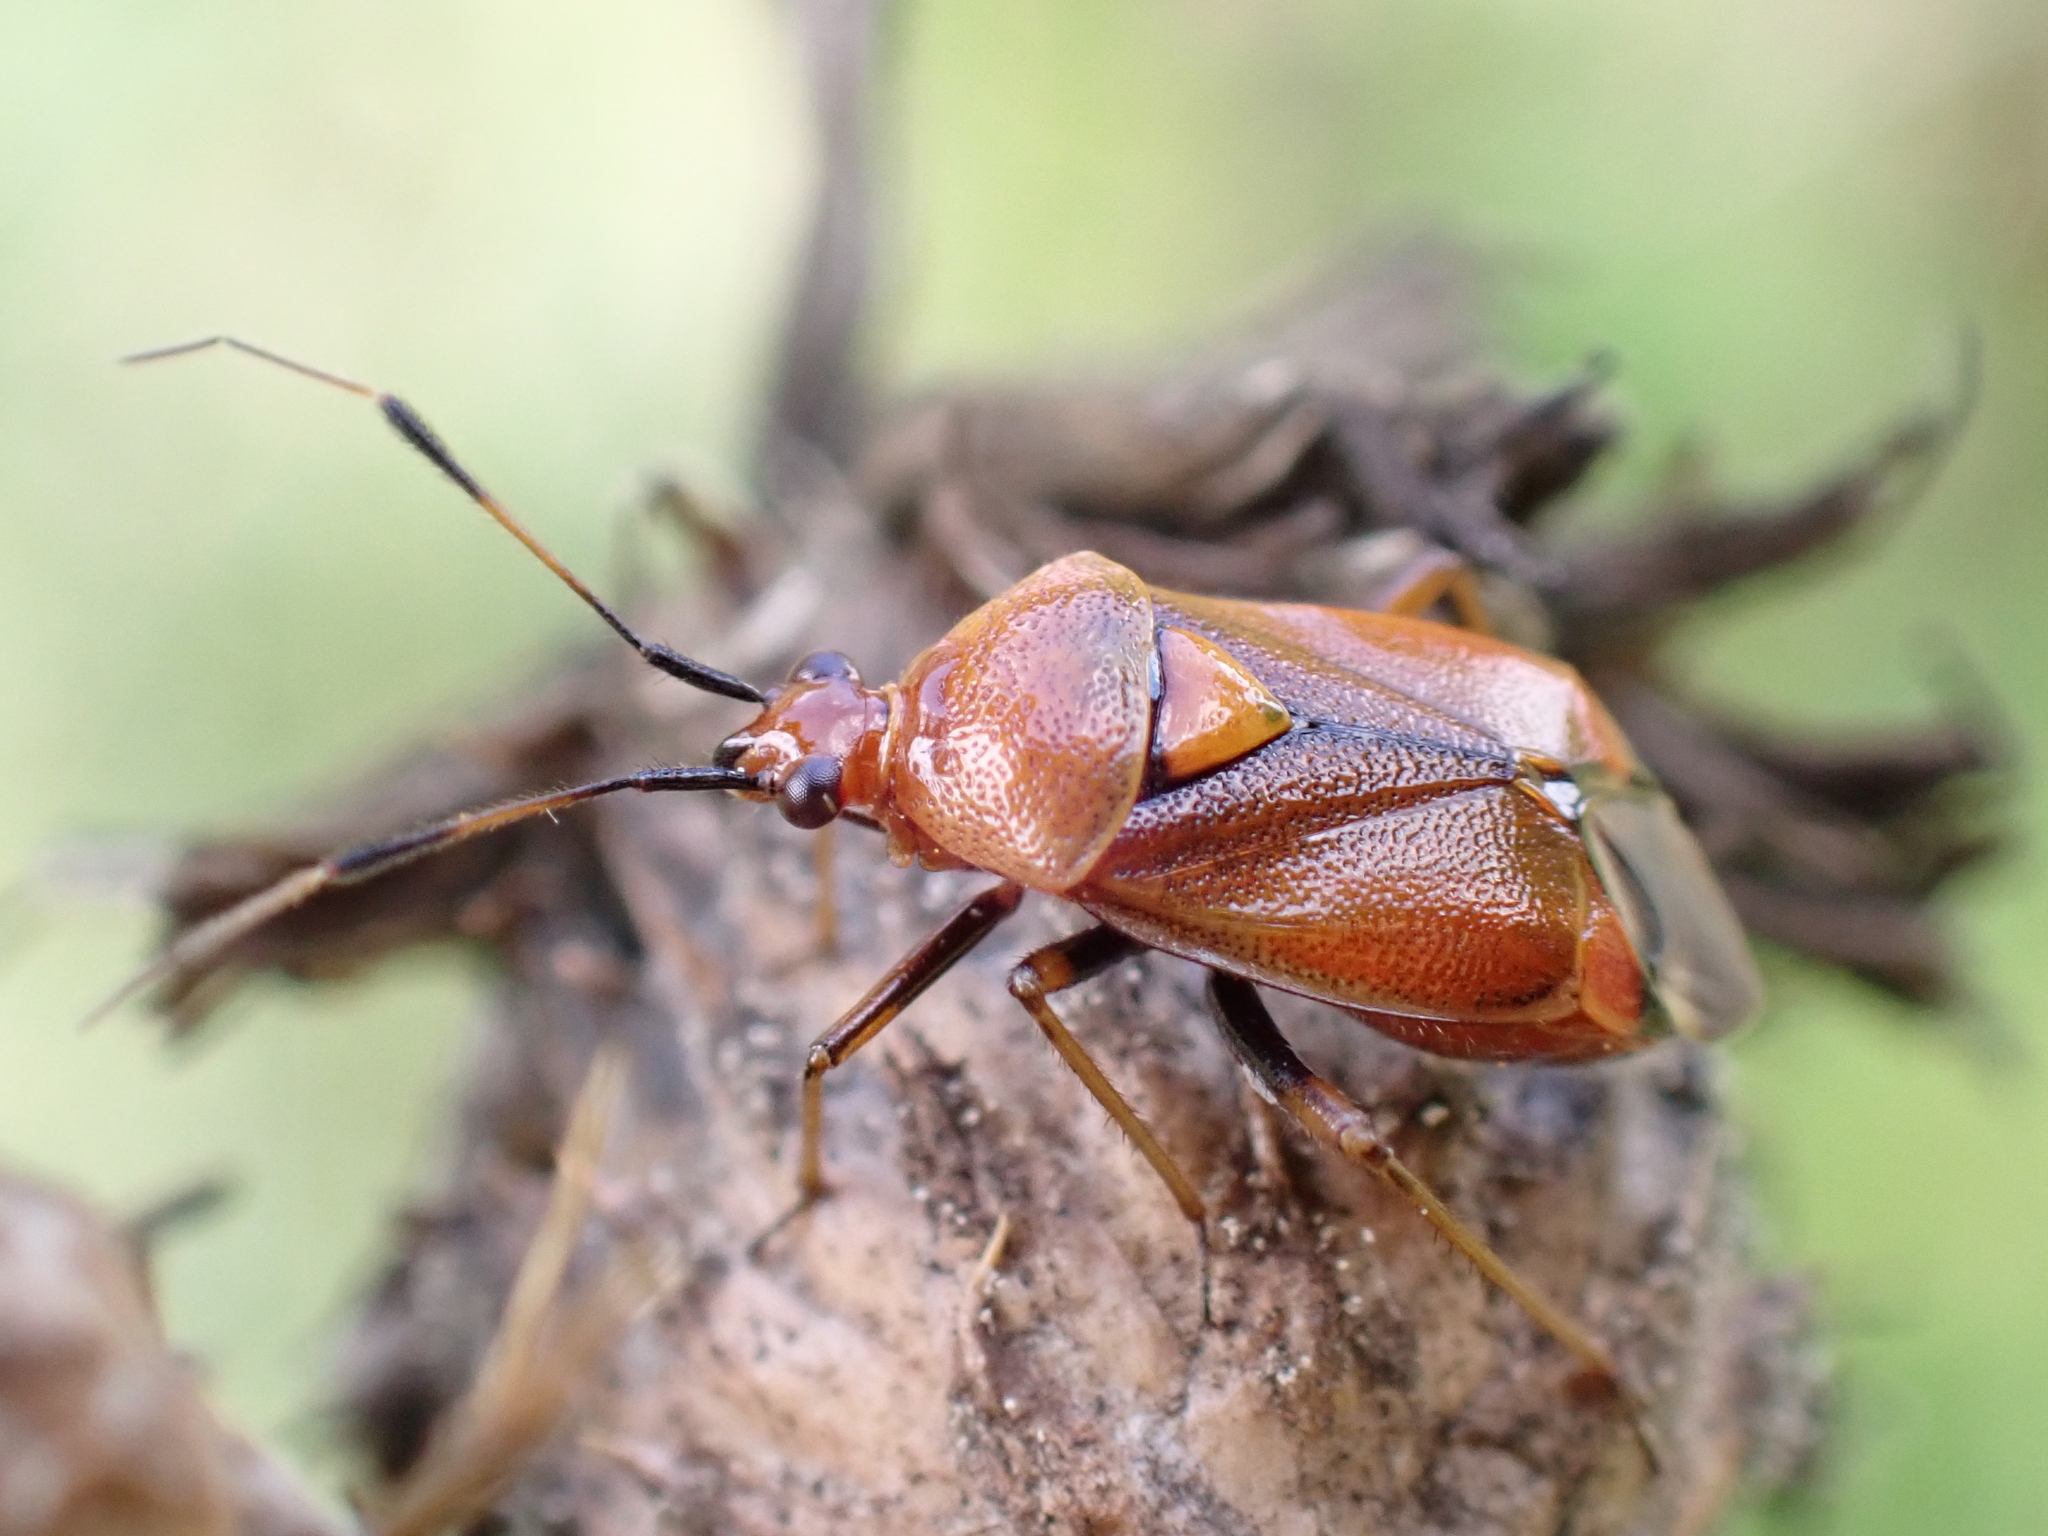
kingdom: Animalia
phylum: Arthropoda
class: Insecta
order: Hemiptera
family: Miridae
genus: Deraeocoris
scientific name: Deraeocoris ruber
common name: Plant bug
